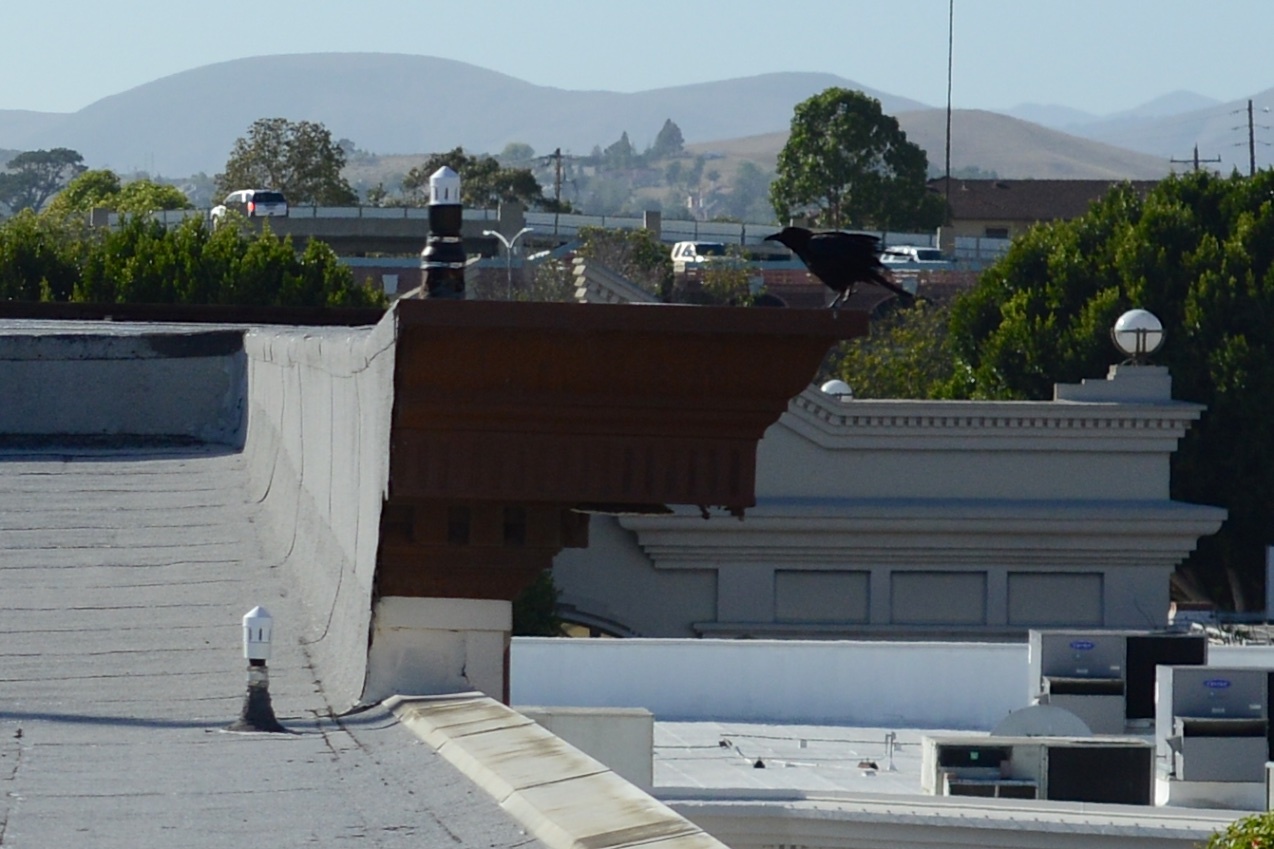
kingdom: Animalia
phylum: Chordata
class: Aves
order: Passeriformes
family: Corvidae
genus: Corvus
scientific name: Corvus brachyrhynchos
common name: American crow
